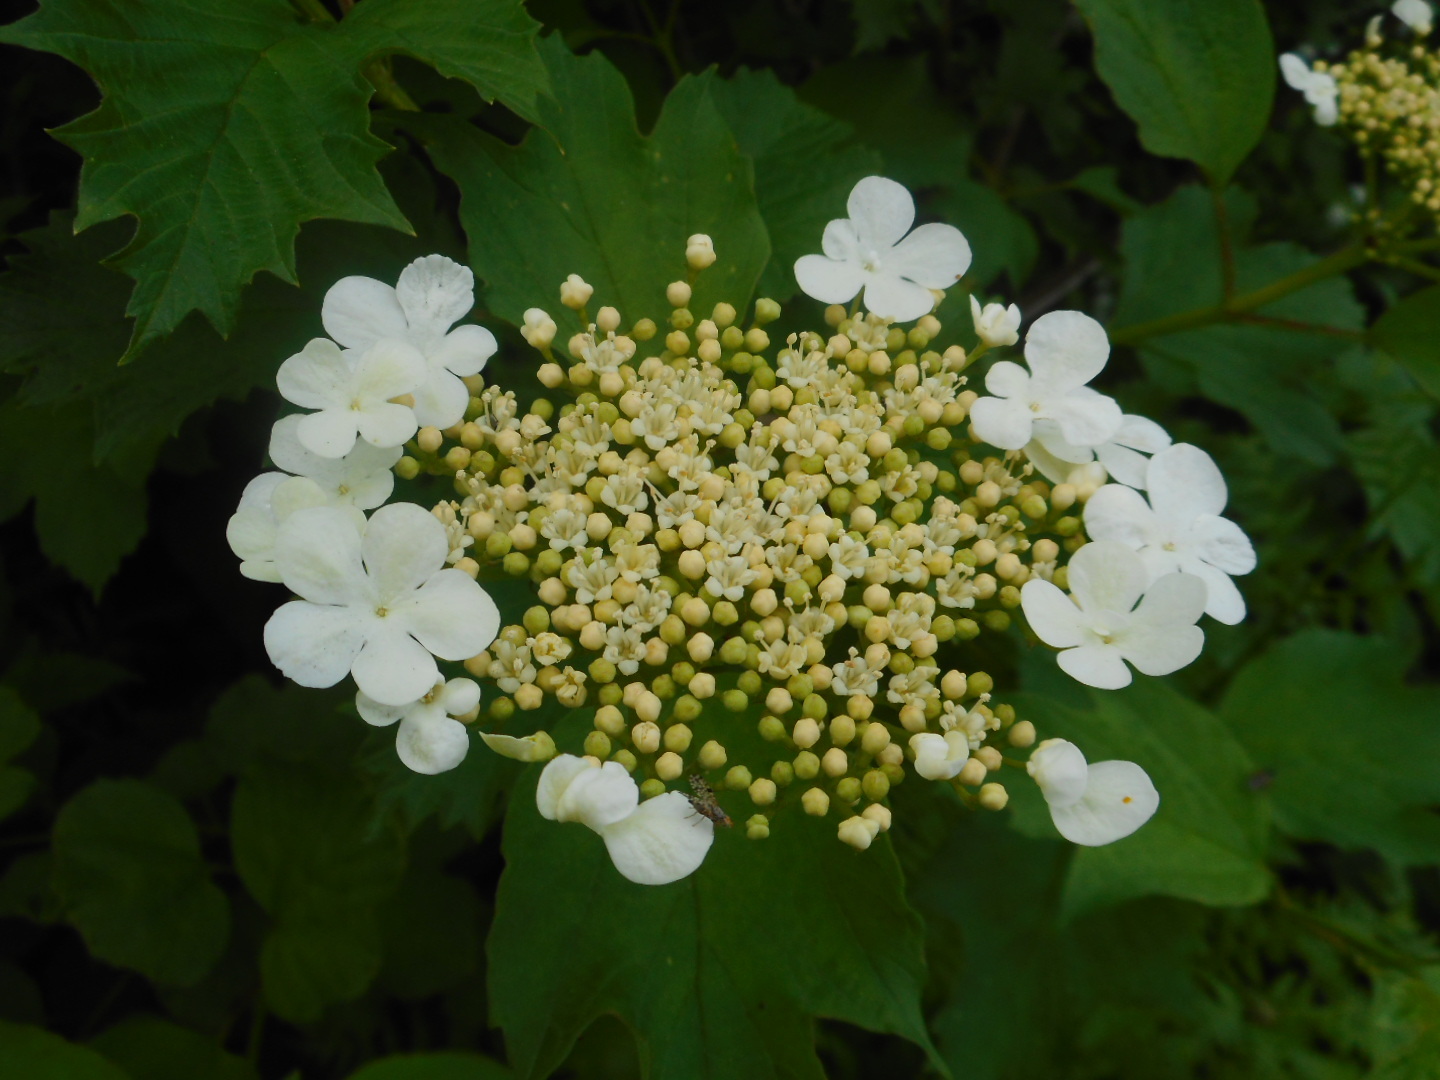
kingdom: Plantae
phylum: Tracheophyta
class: Magnoliopsida
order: Dipsacales
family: Viburnaceae
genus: Viburnum
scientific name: Viburnum opulus
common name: Guelder-rose
